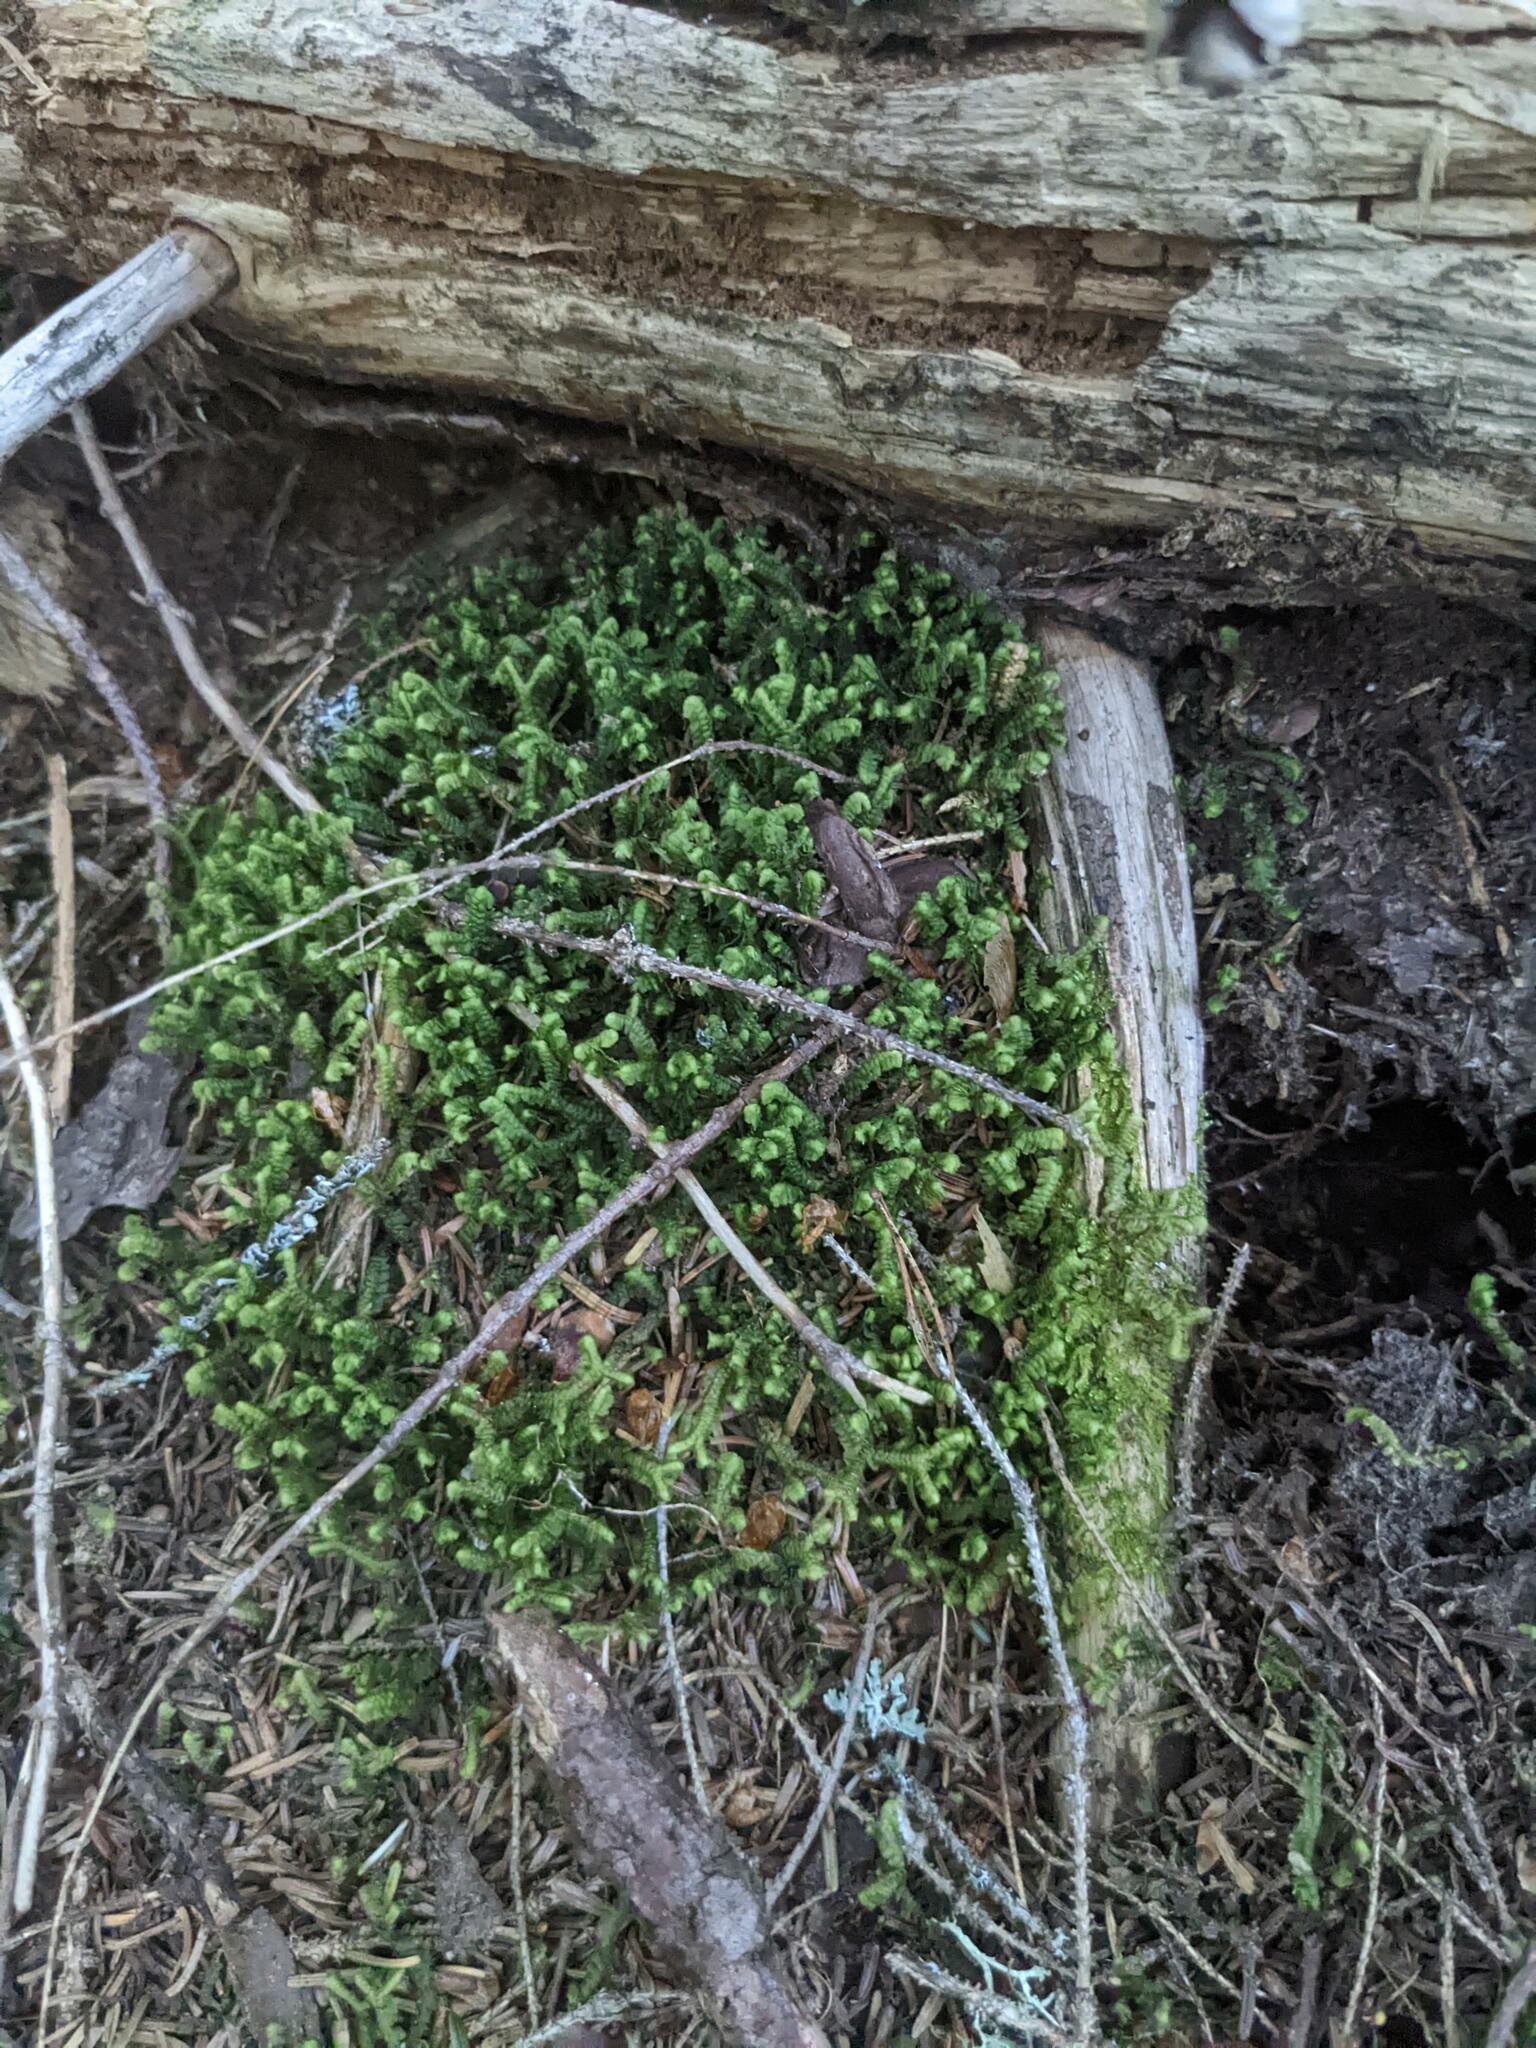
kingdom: Plantae
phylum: Marchantiophyta
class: Jungermanniopsida
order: Jungermanniales
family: Lepidoziaceae
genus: Bazzania
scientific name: Bazzania trilobata
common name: Three-lobed whipwort
